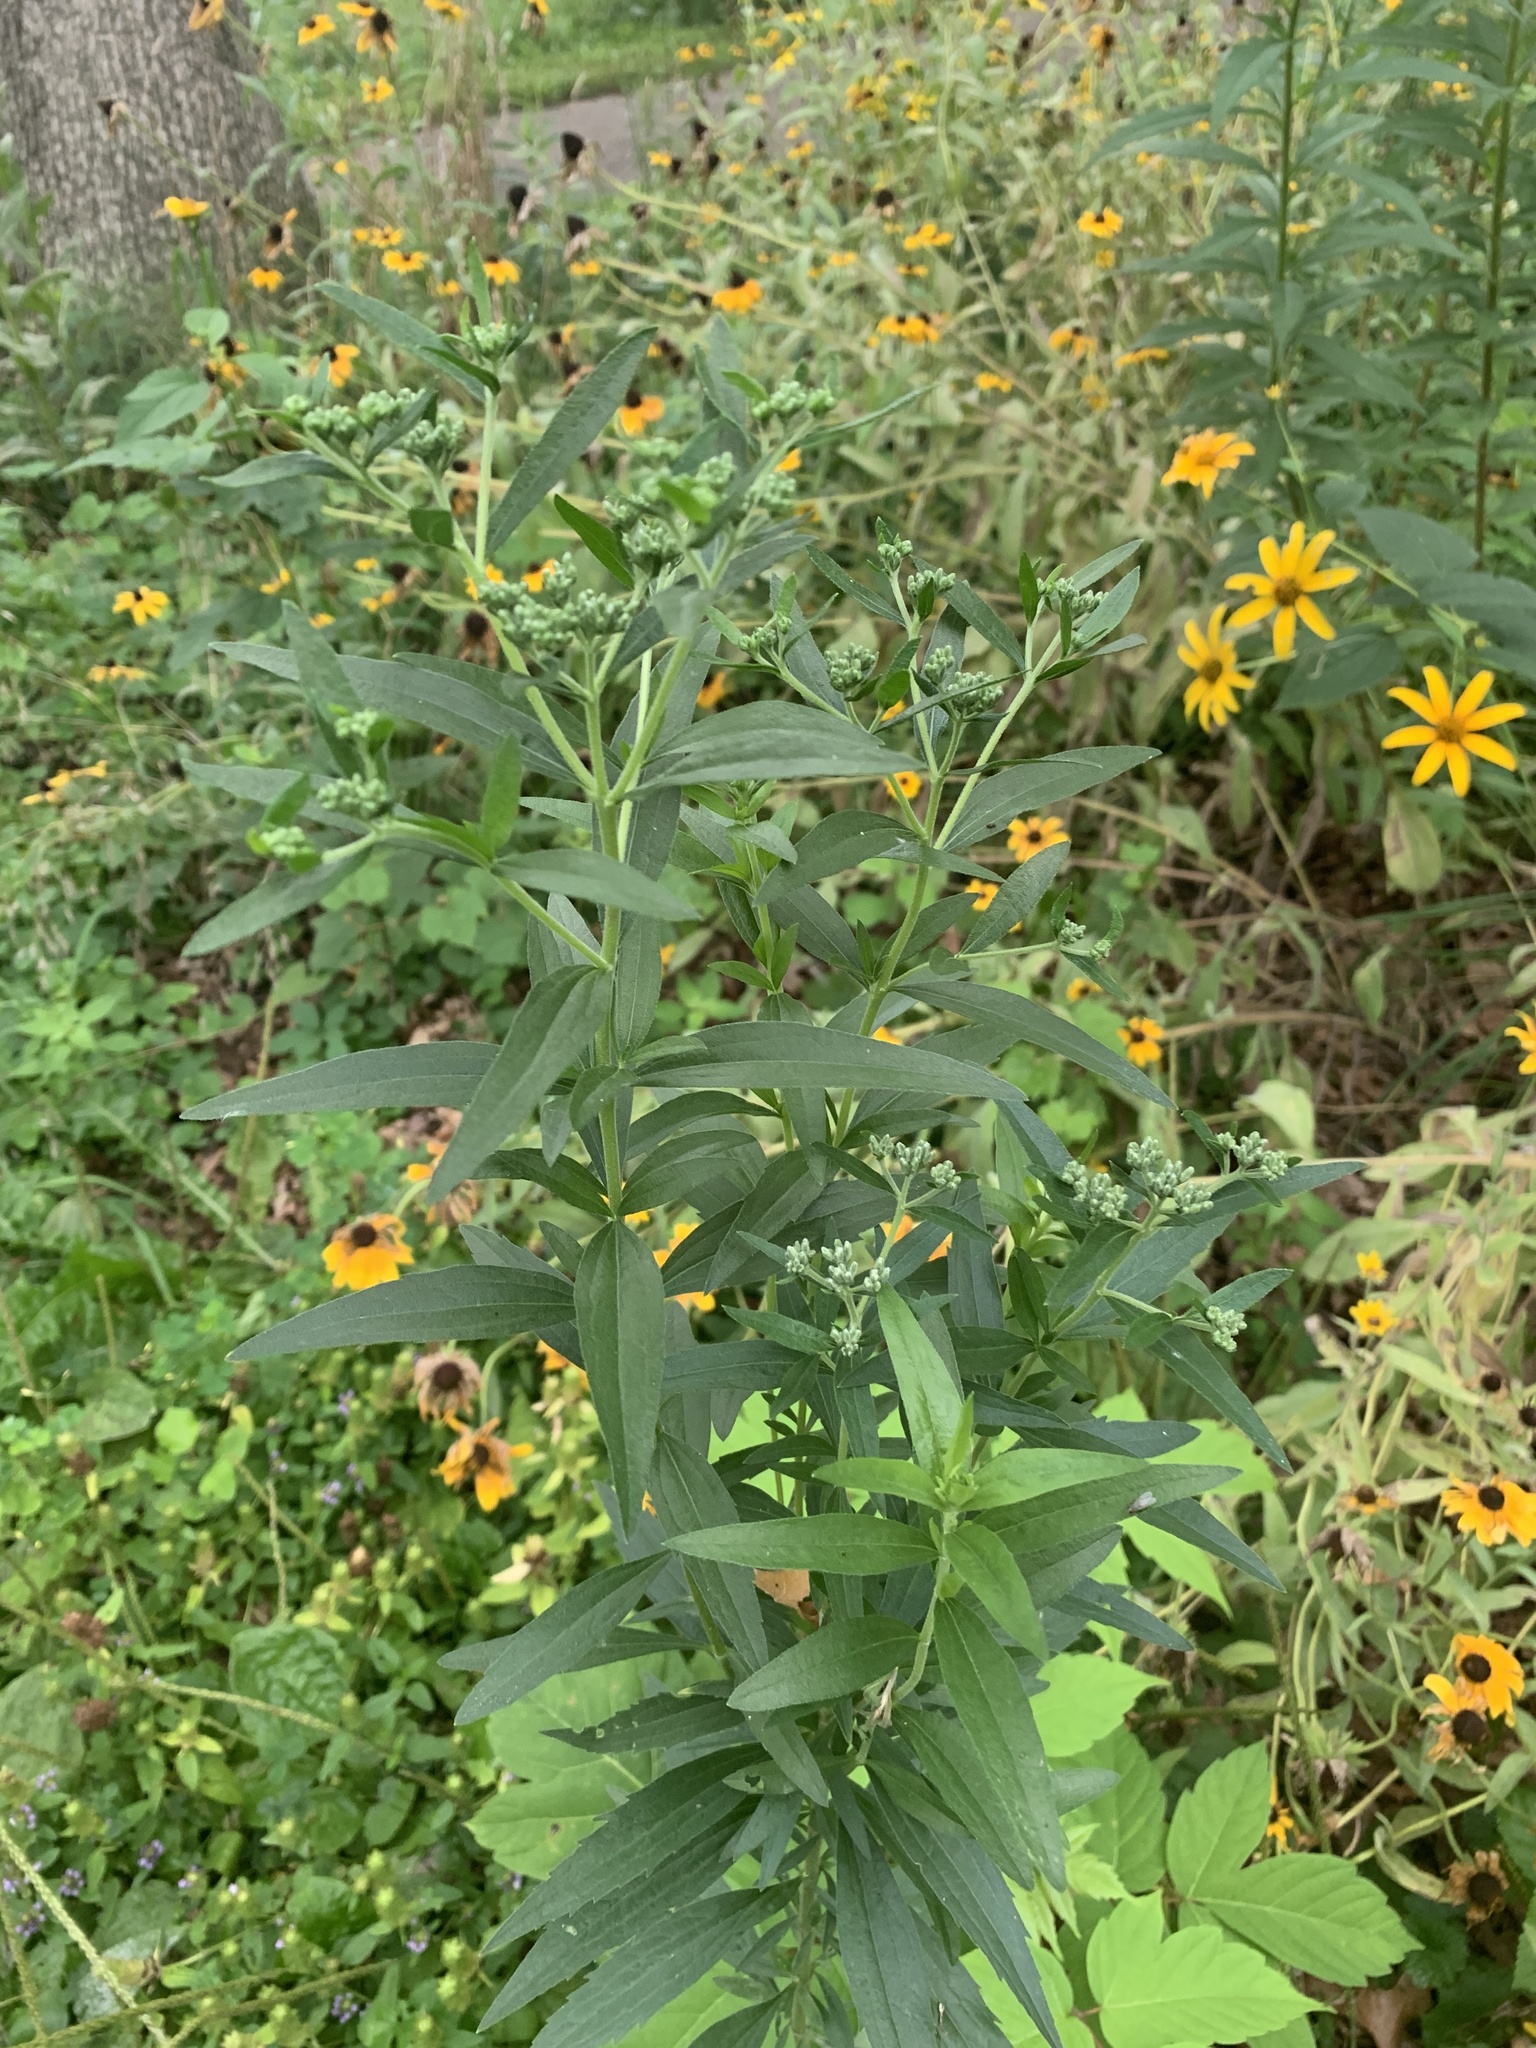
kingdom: Plantae
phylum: Tracheophyta
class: Magnoliopsida
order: Asterales
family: Asteraceae
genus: Eupatorium
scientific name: Eupatorium altissimum
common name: Tall thoroughwort
